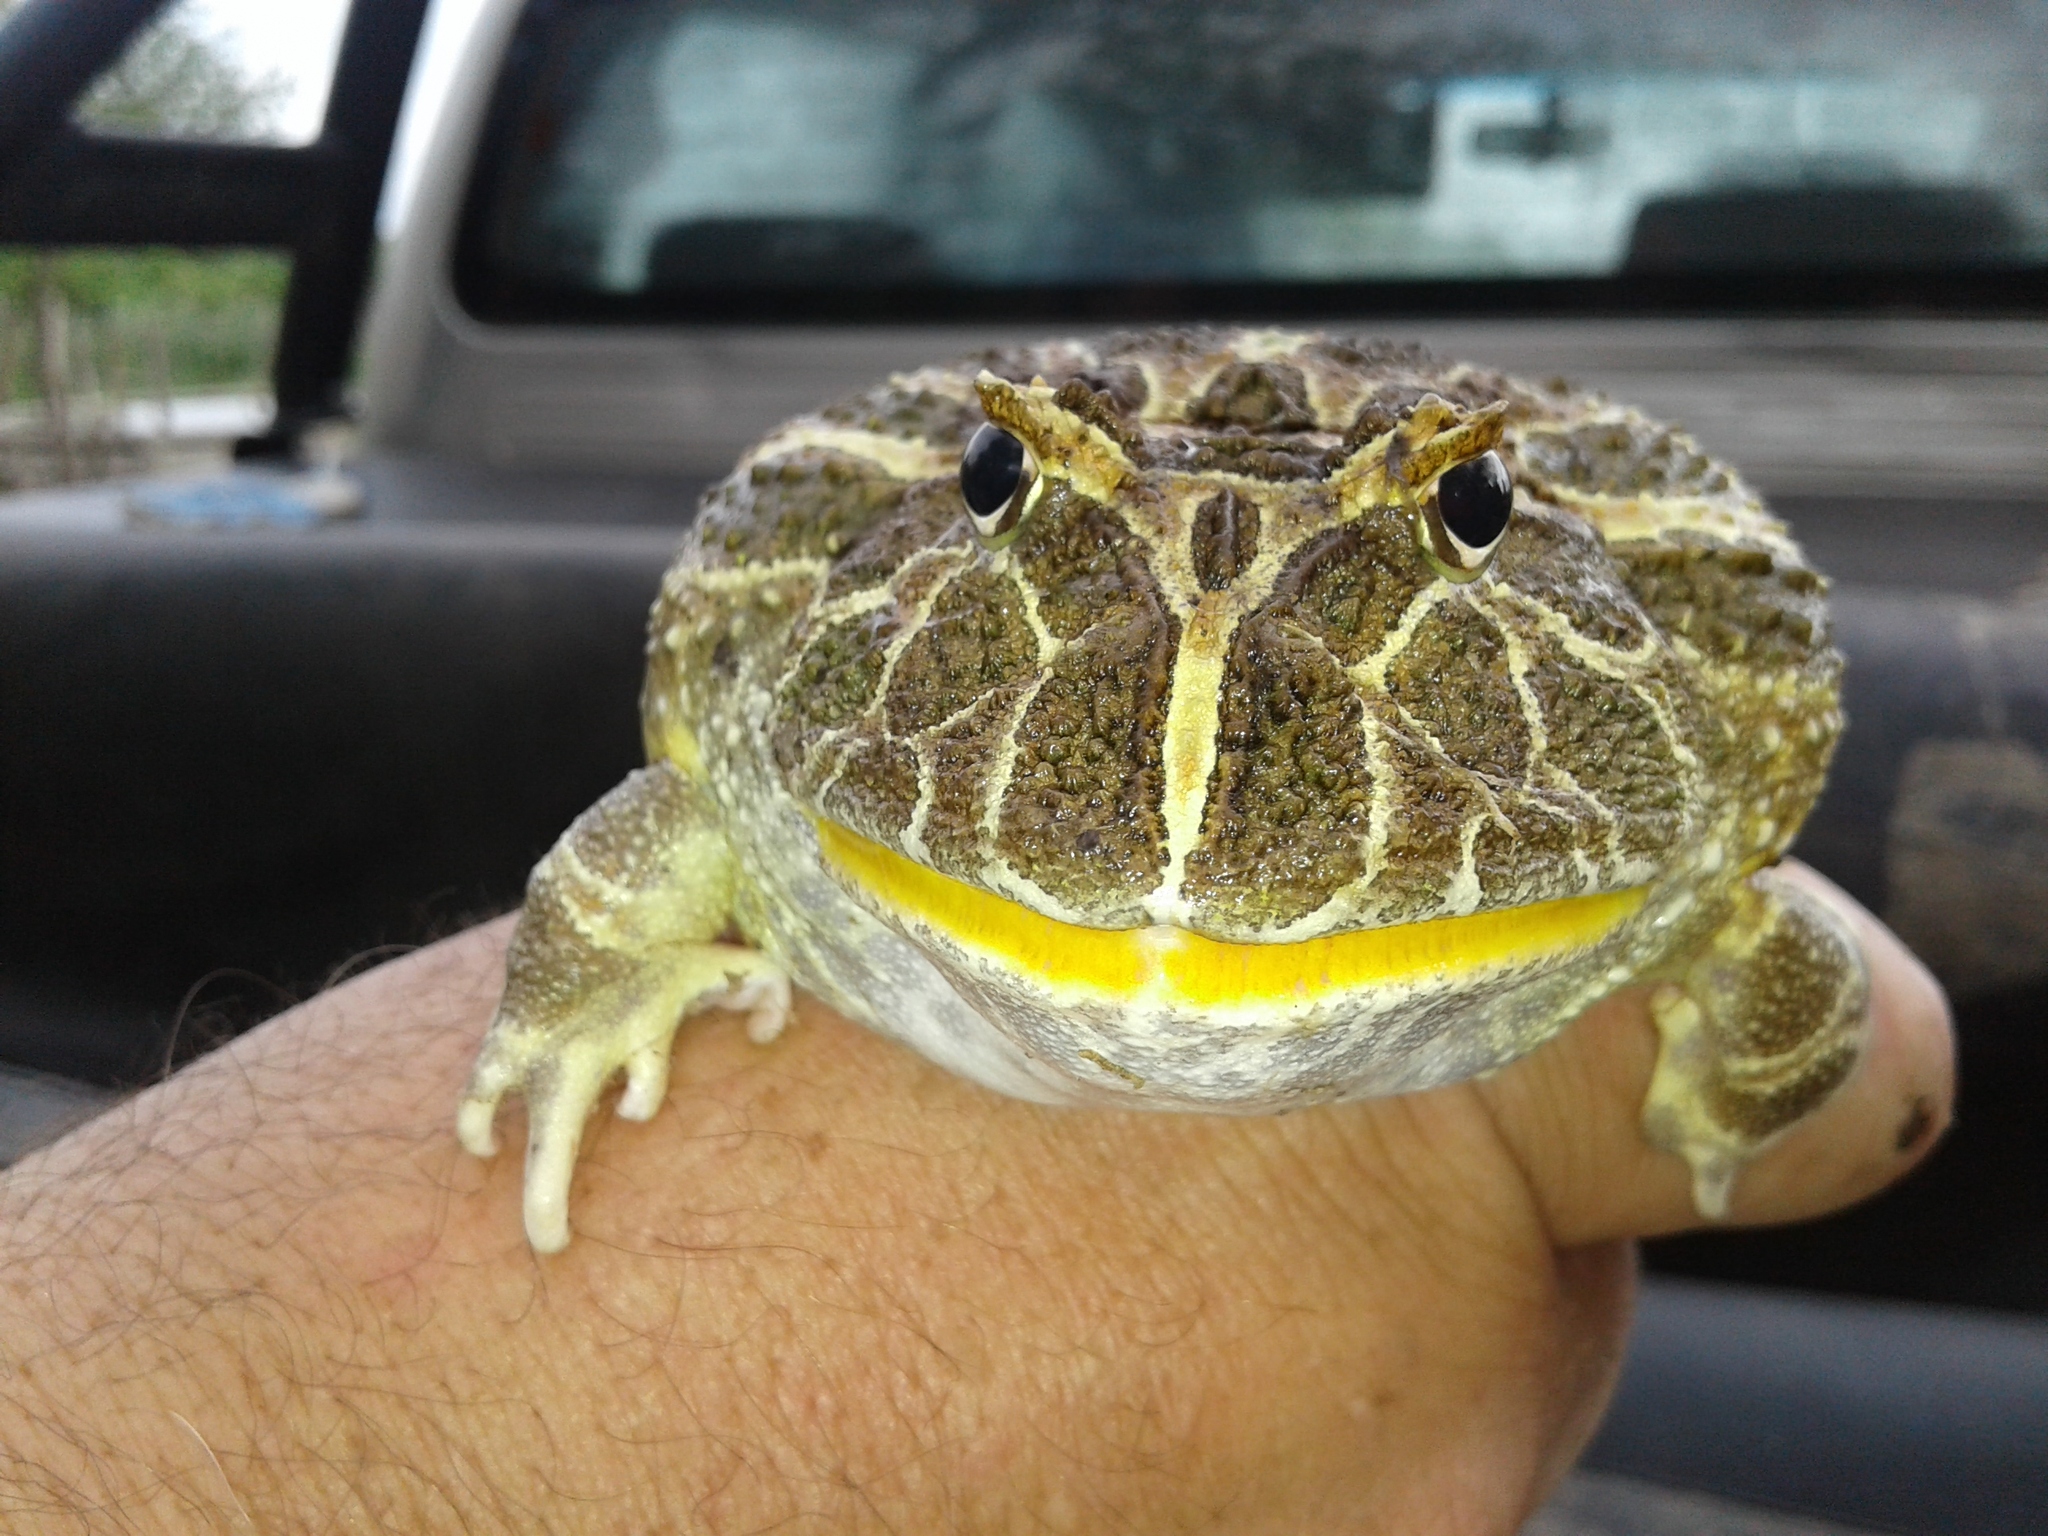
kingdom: Animalia
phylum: Chordata
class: Amphibia
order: Anura
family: Ceratophryidae
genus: Ceratophrys
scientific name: Ceratophrys cranwelli
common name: Chacoan horned frog
